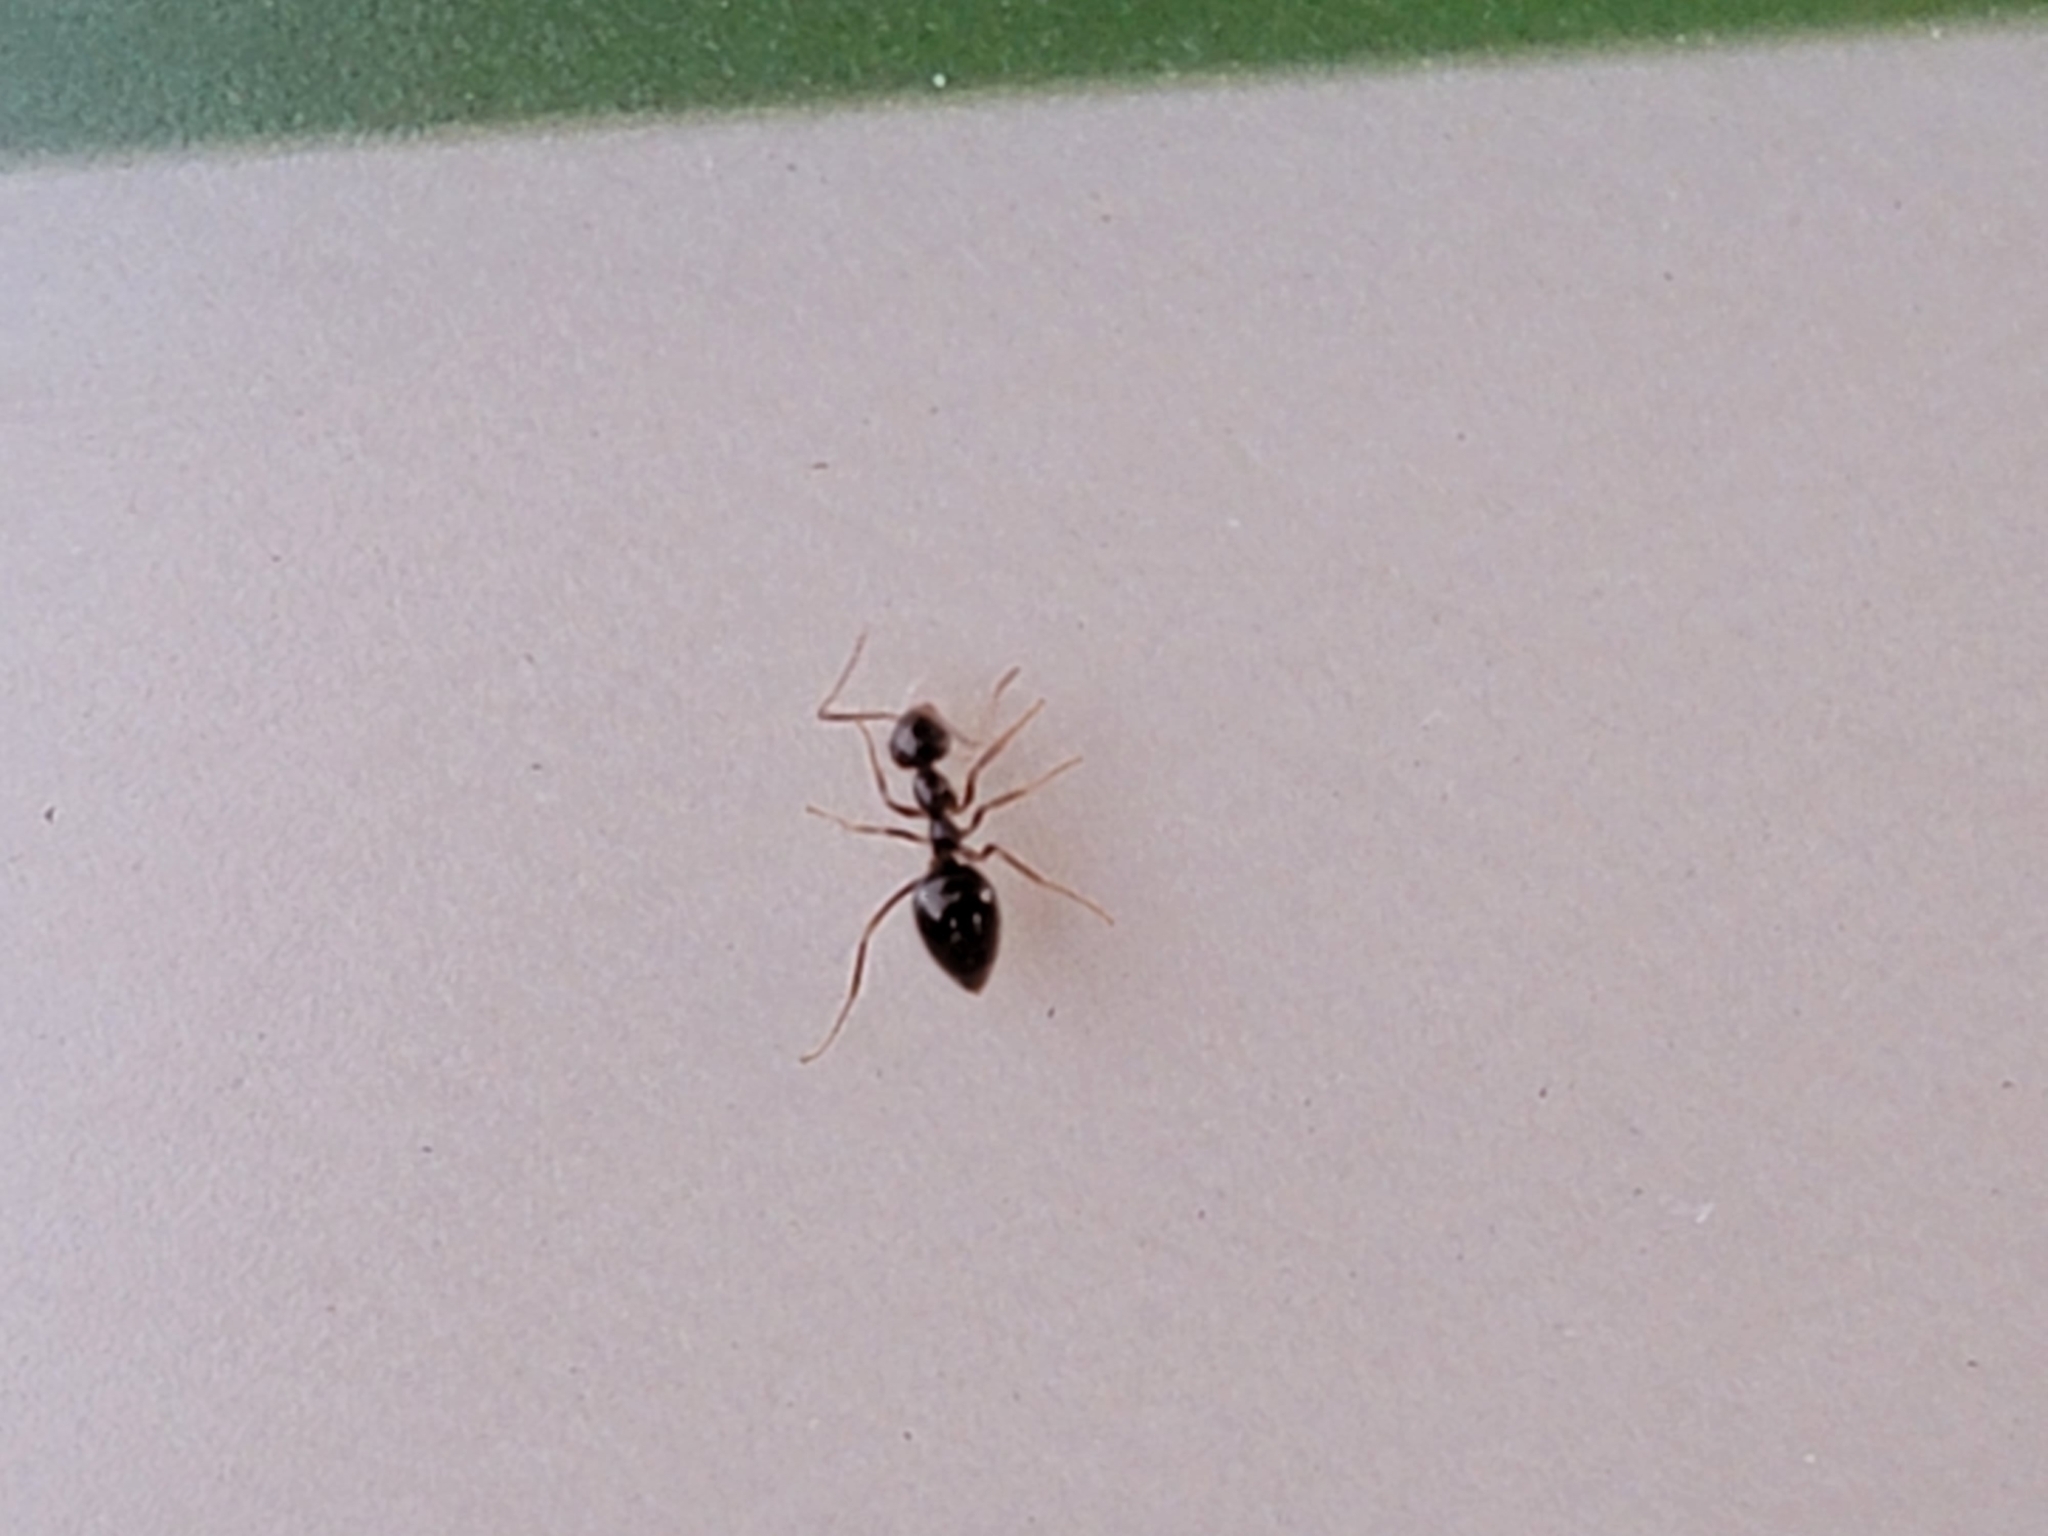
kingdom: Animalia
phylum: Arthropoda
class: Insecta
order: Hymenoptera
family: Formicidae
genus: Prenolepis
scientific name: Prenolepis imparis
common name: Small honey ant
